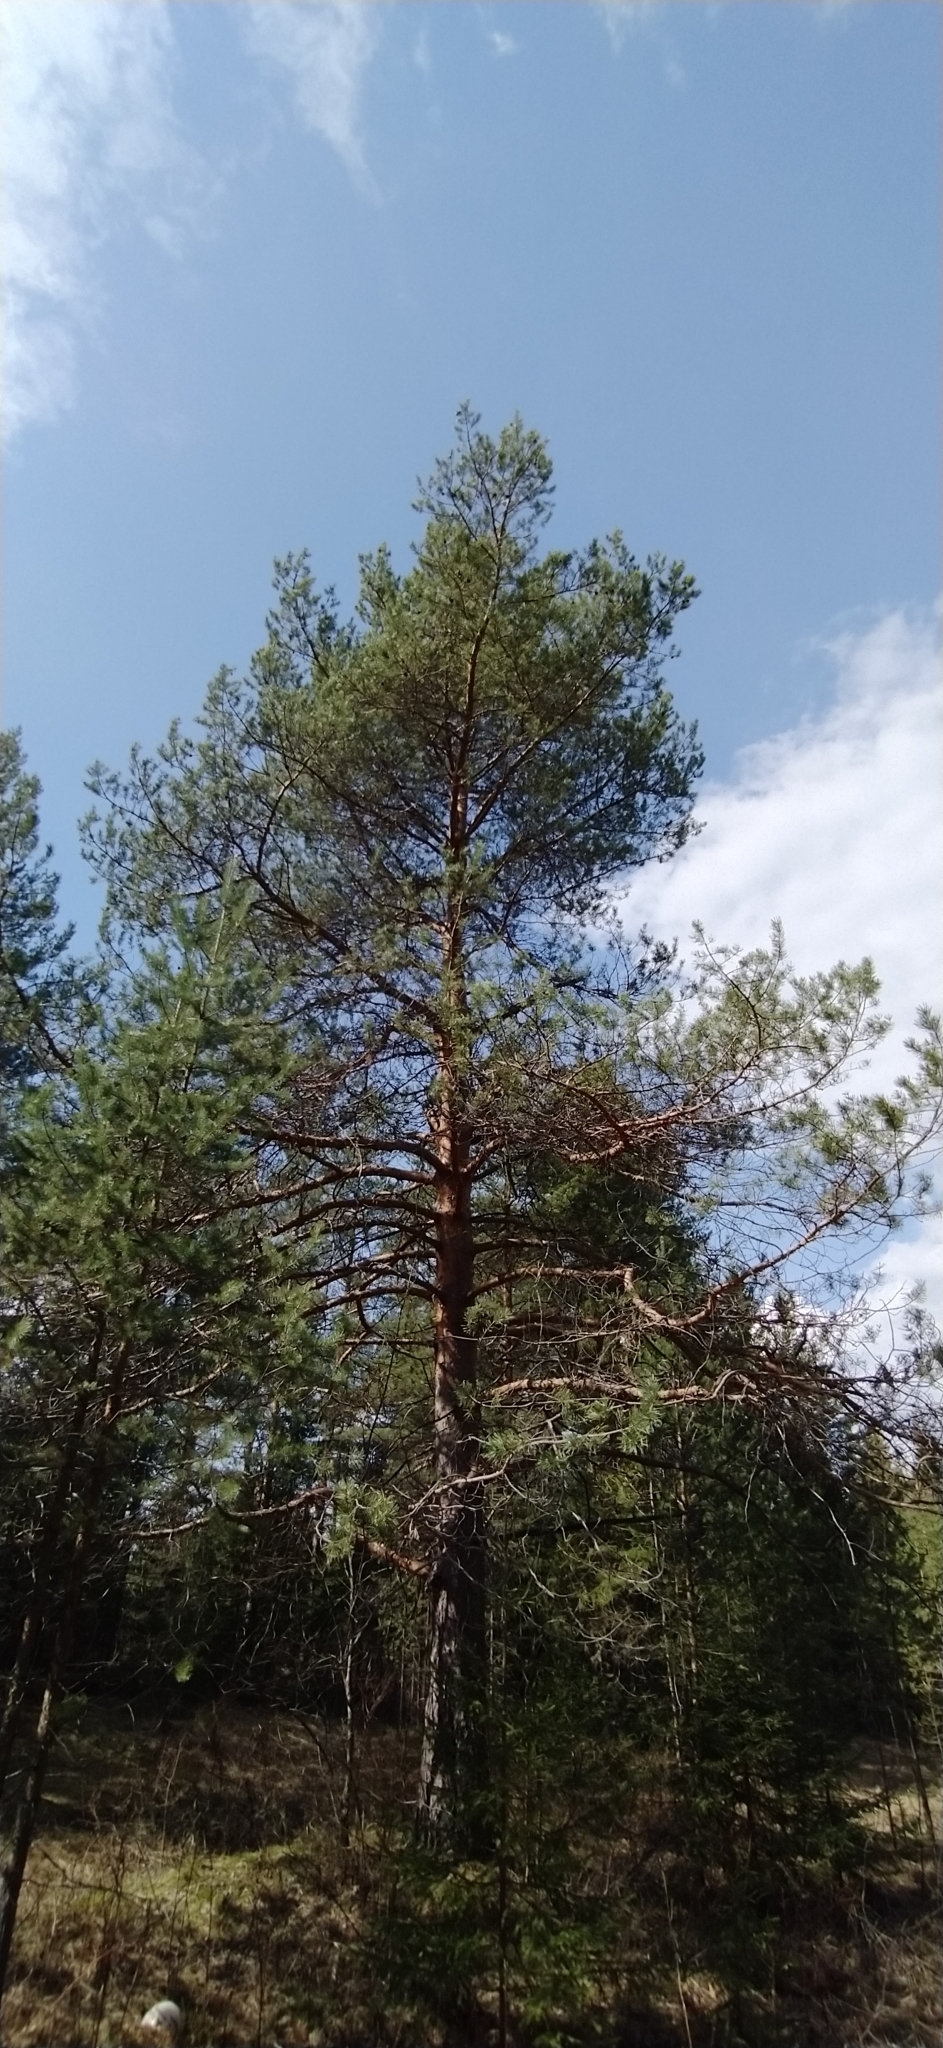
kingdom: Plantae
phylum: Tracheophyta
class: Pinopsida
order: Pinales
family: Pinaceae
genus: Pinus
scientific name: Pinus sylvestris
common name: Scots pine
